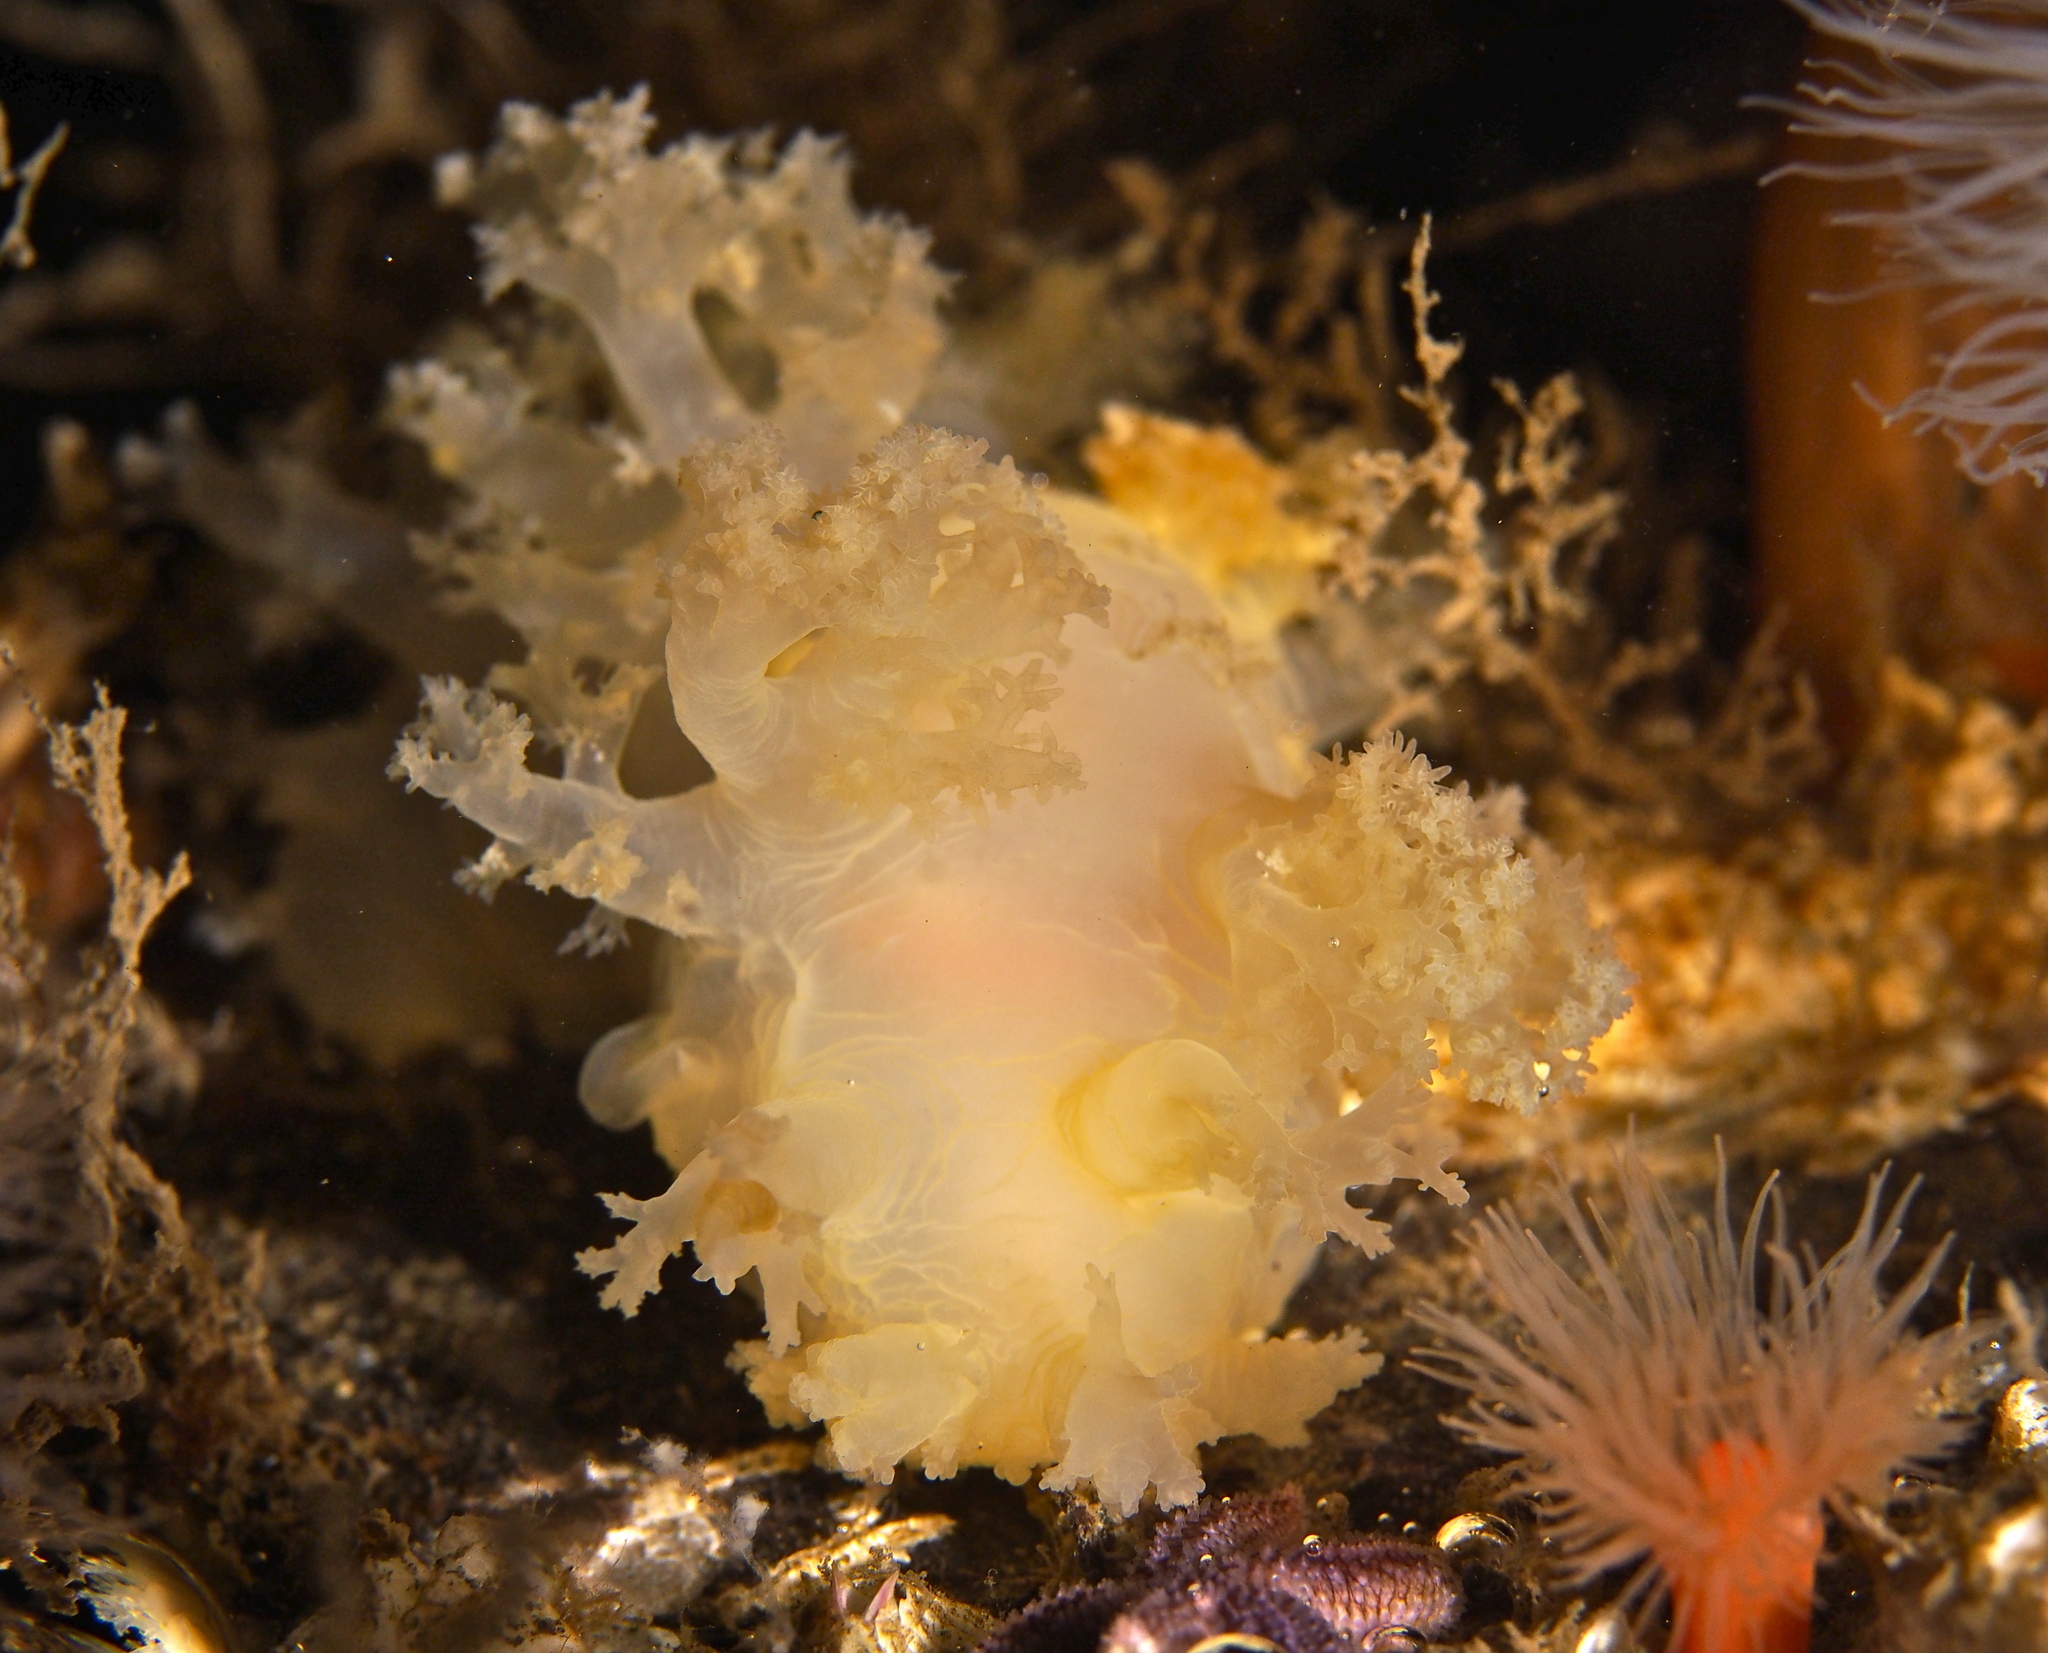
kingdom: Animalia
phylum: Mollusca
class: Gastropoda
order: Nudibranchia
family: Dendronotidae
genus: Dendronotus
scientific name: Dendronotus lacteus
